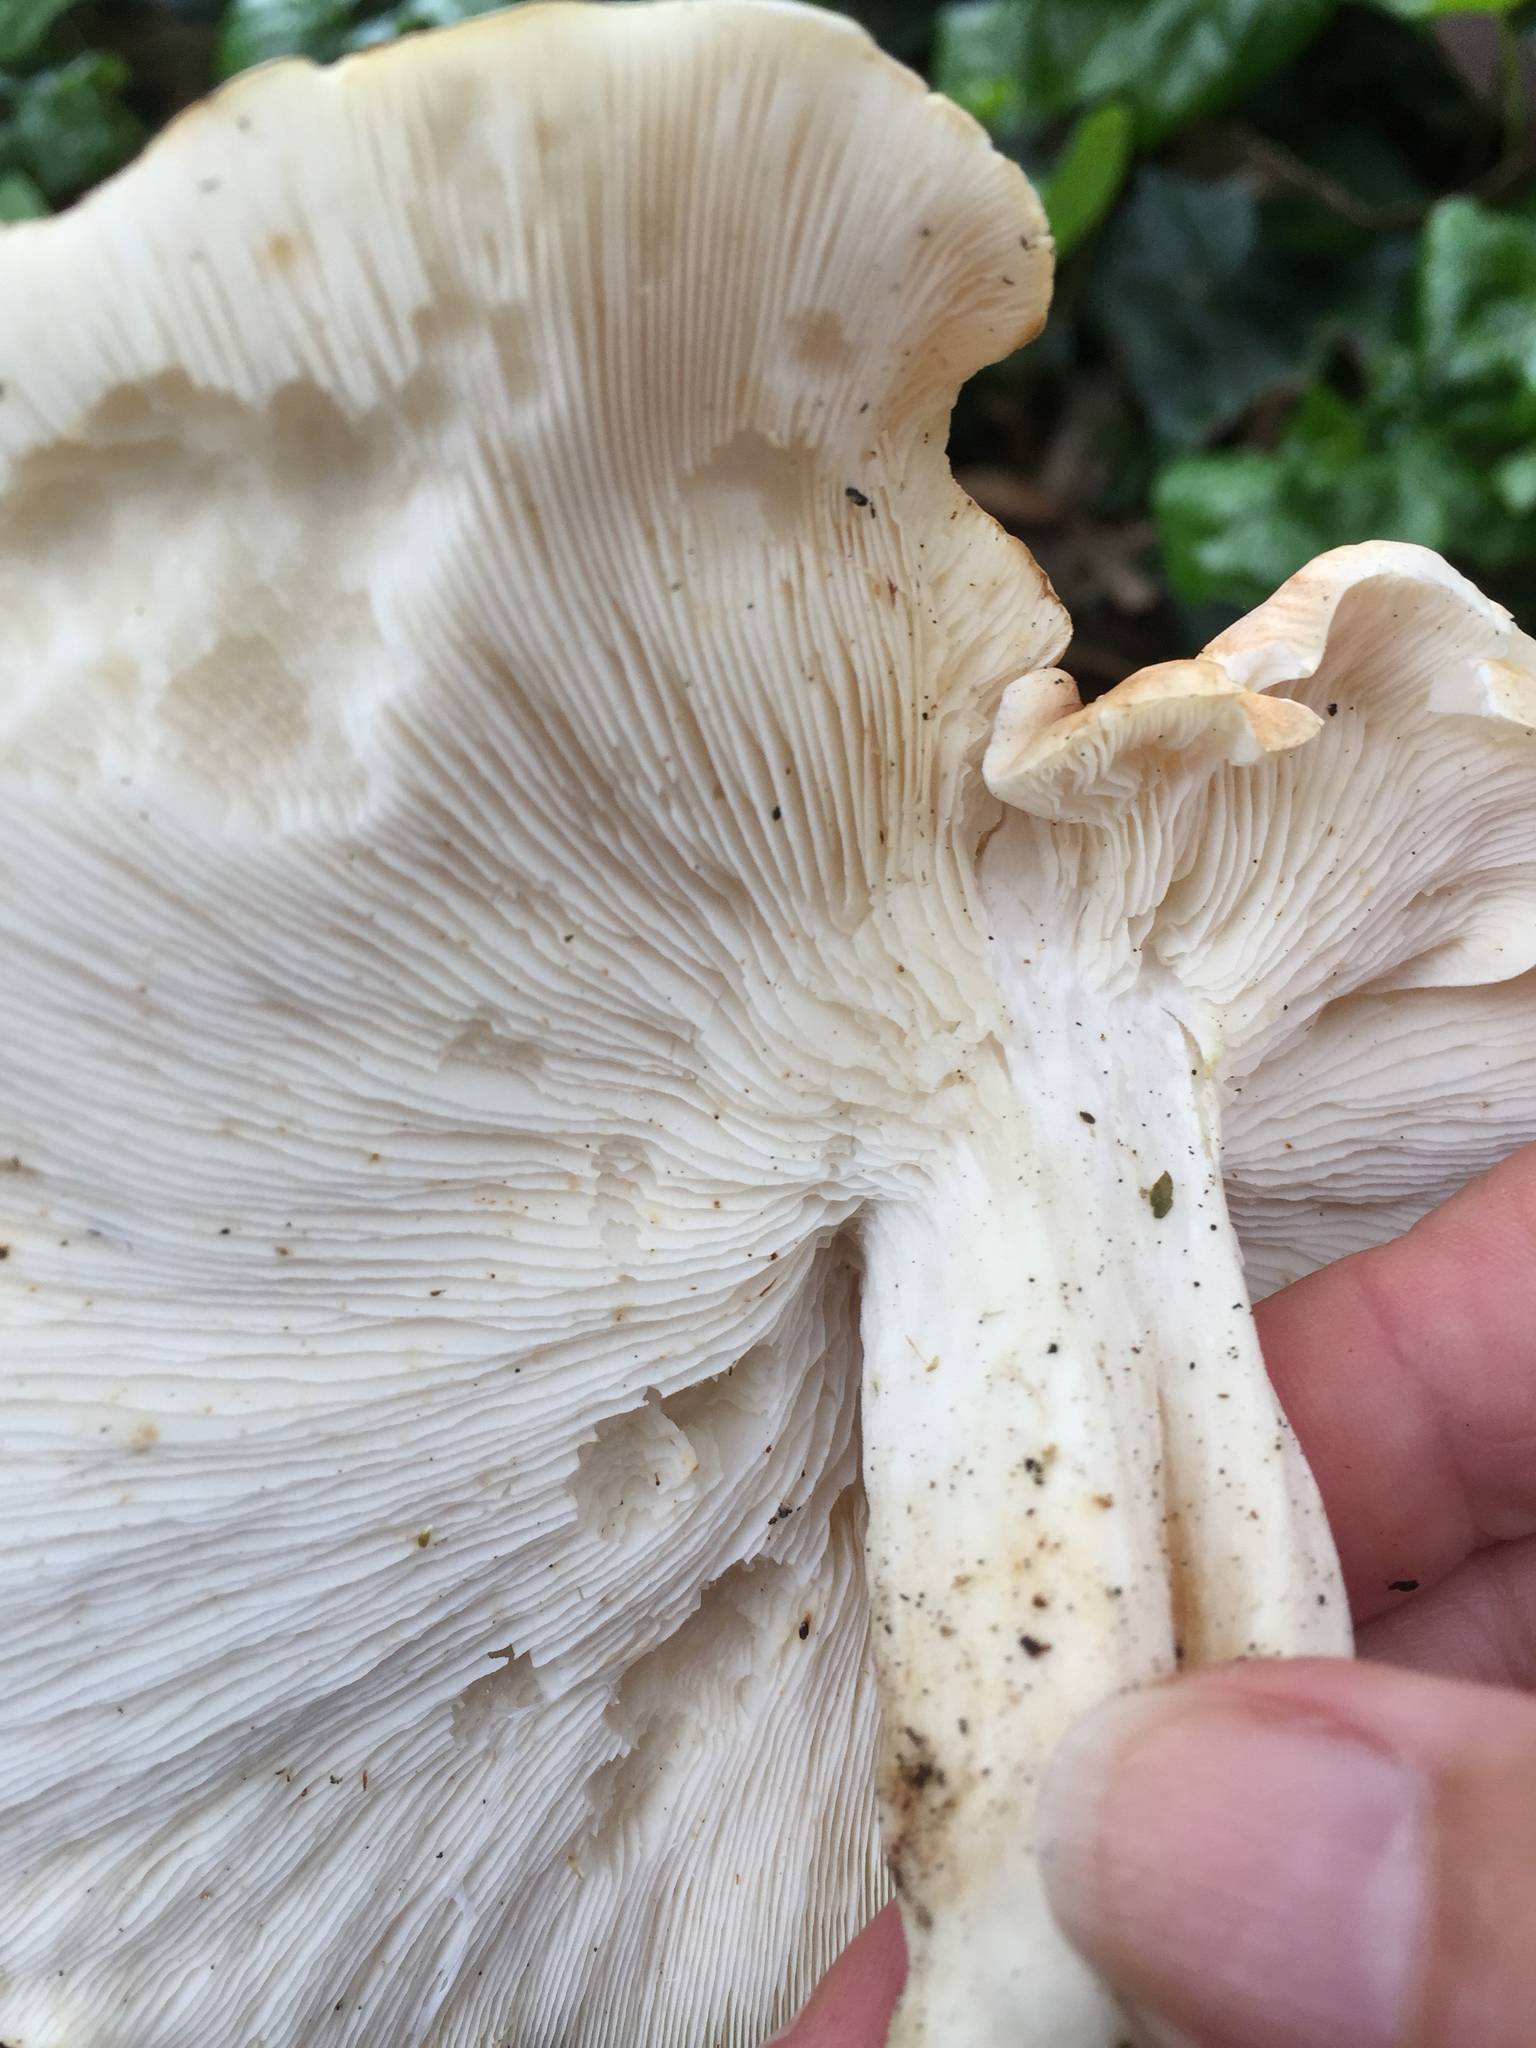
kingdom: Fungi
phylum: Basidiomycota
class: Agaricomycetes
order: Agaricales
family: Tricholomataceae
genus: Leucopaxillus
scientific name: Leucopaxillus gentianeus
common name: Bitter funnel
